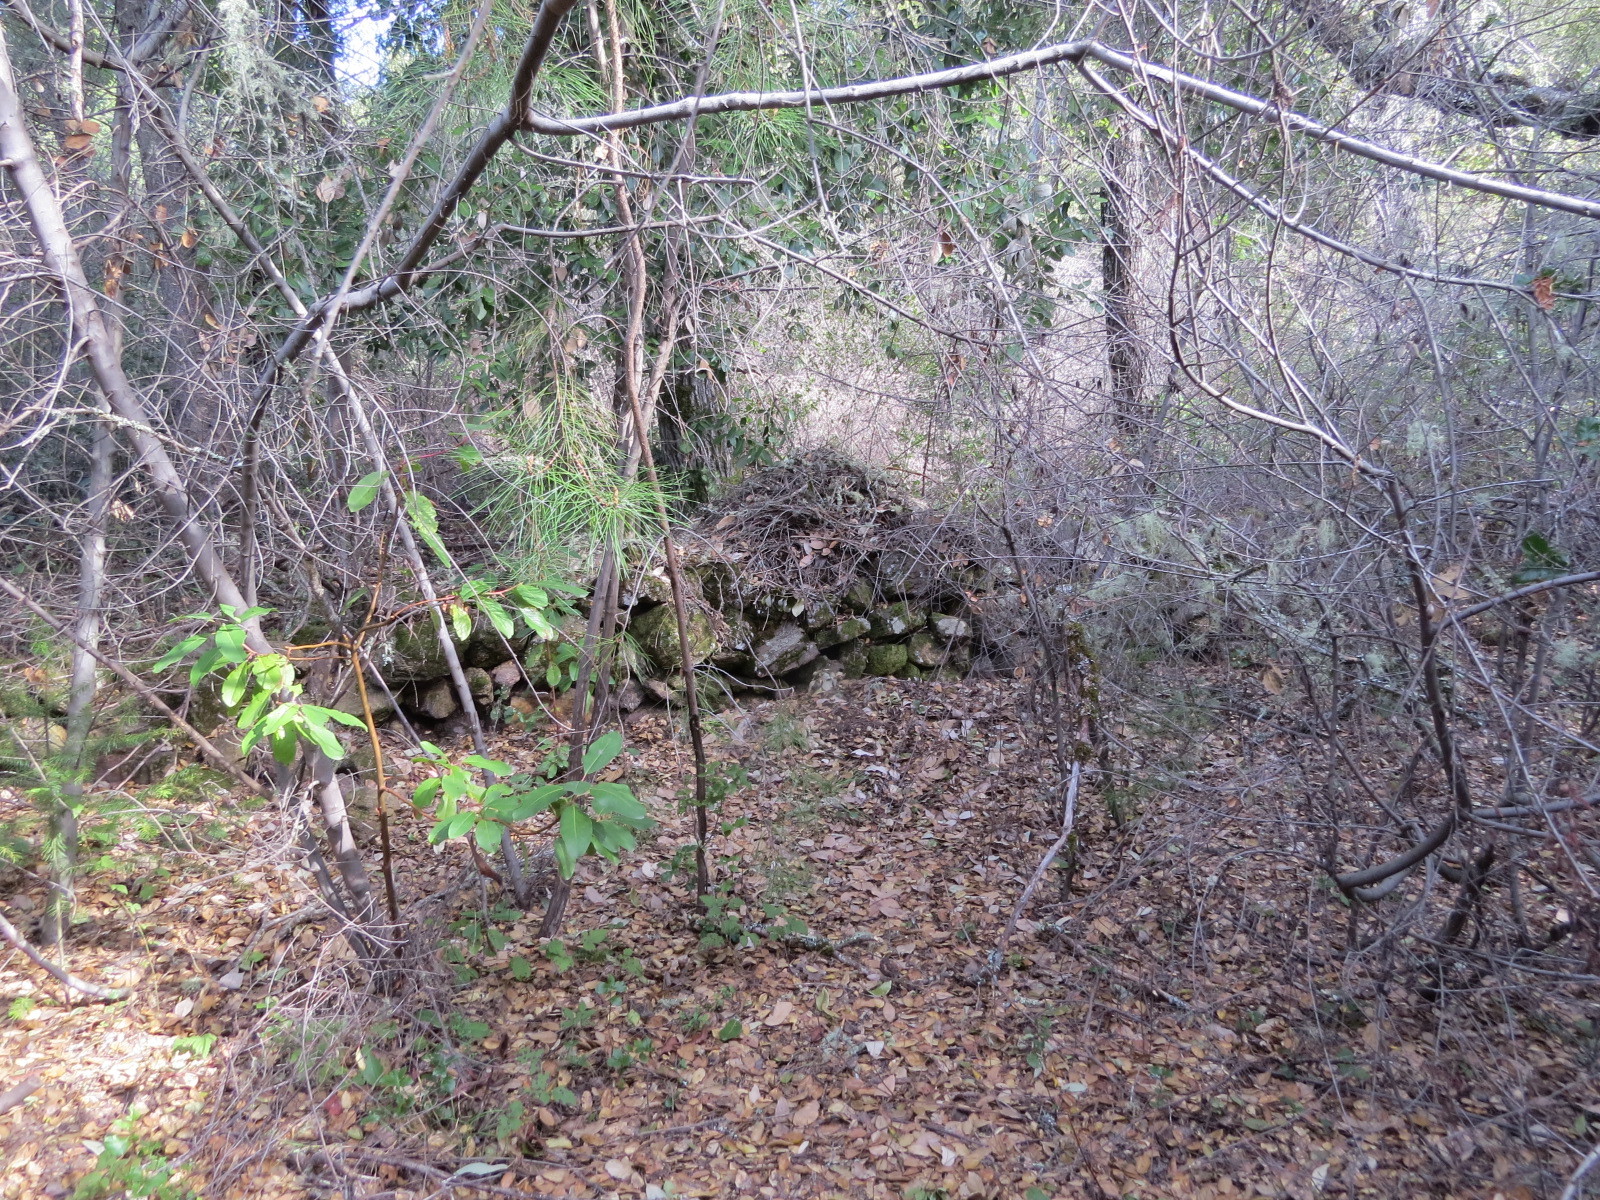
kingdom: Animalia
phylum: Chordata
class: Mammalia
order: Rodentia
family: Cricetidae
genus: Neotoma
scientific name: Neotoma fuscipes
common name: Dusky-footed woodrat
